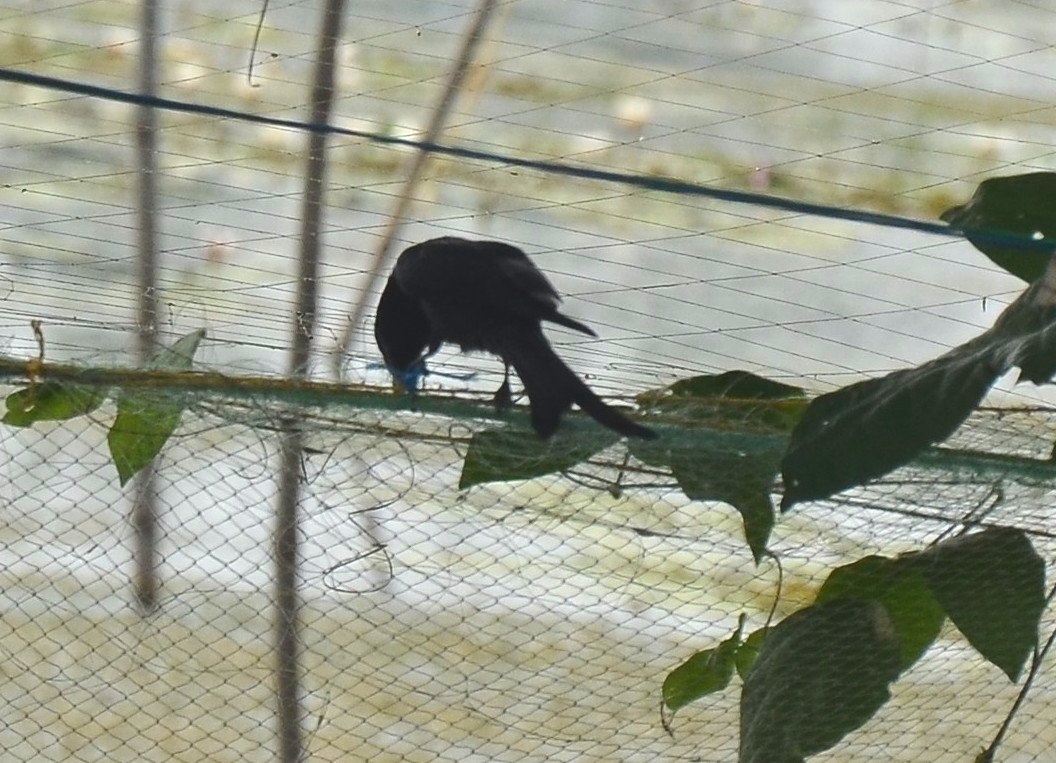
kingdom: Animalia
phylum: Chordata
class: Aves
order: Passeriformes
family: Dicruridae
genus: Dicrurus
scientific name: Dicrurus macrocercus
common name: Black drongo
